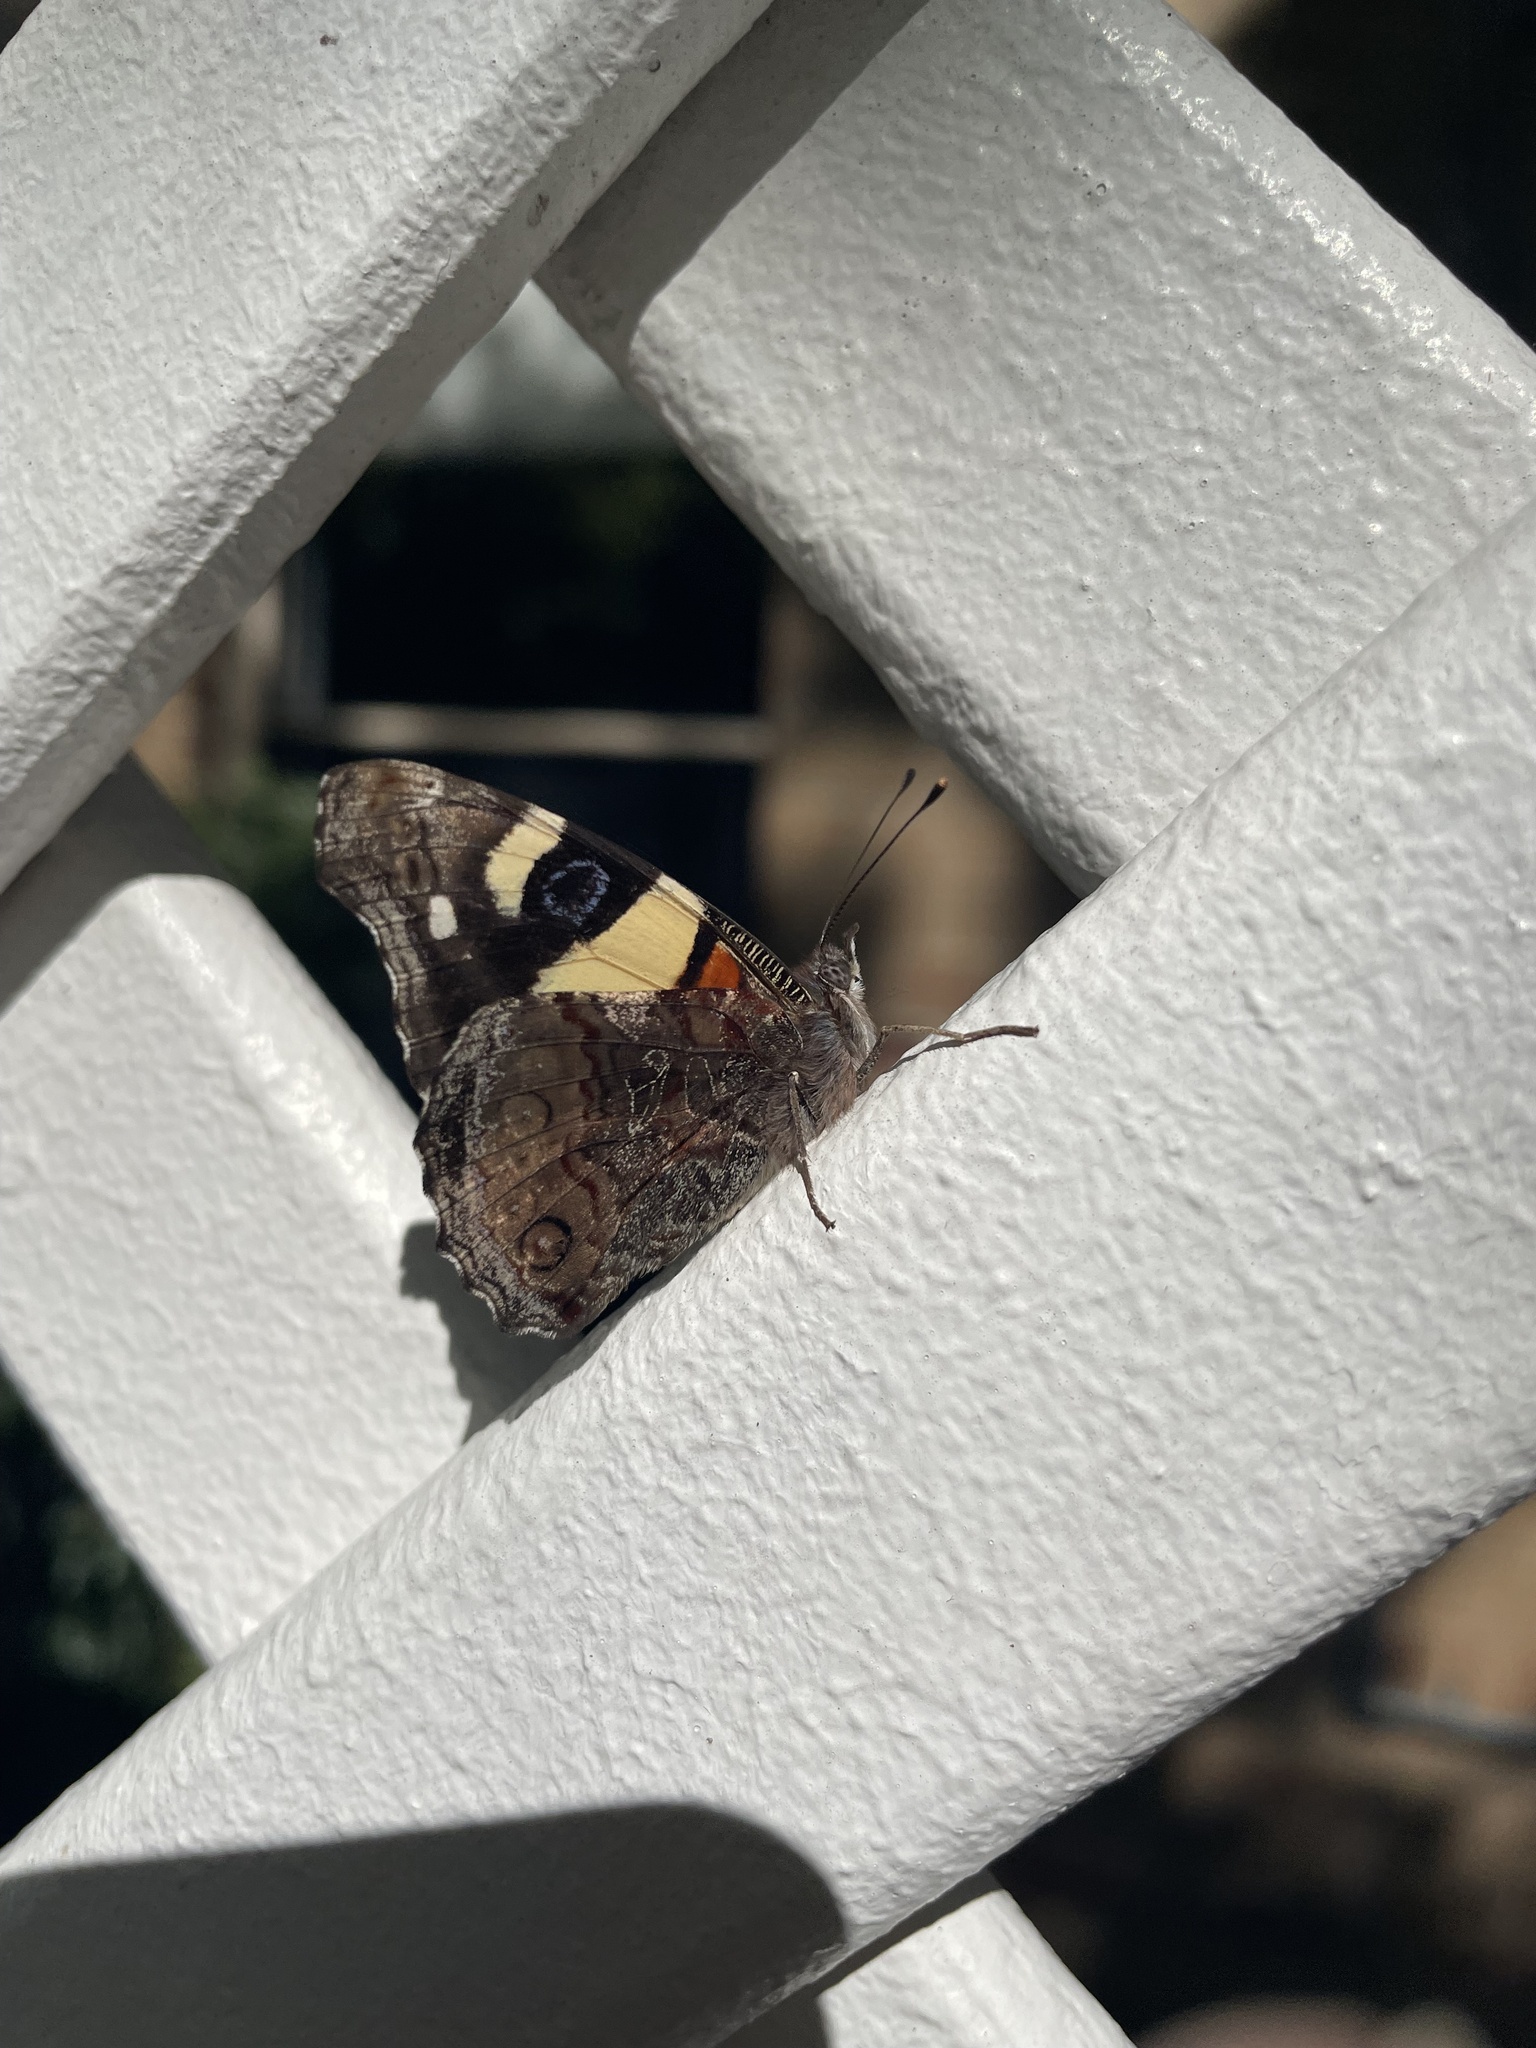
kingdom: Animalia
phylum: Arthropoda
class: Insecta
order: Lepidoptera
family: Nymphalidae
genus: Vanessa
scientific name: Vanessa itea
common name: Yellow admiral
